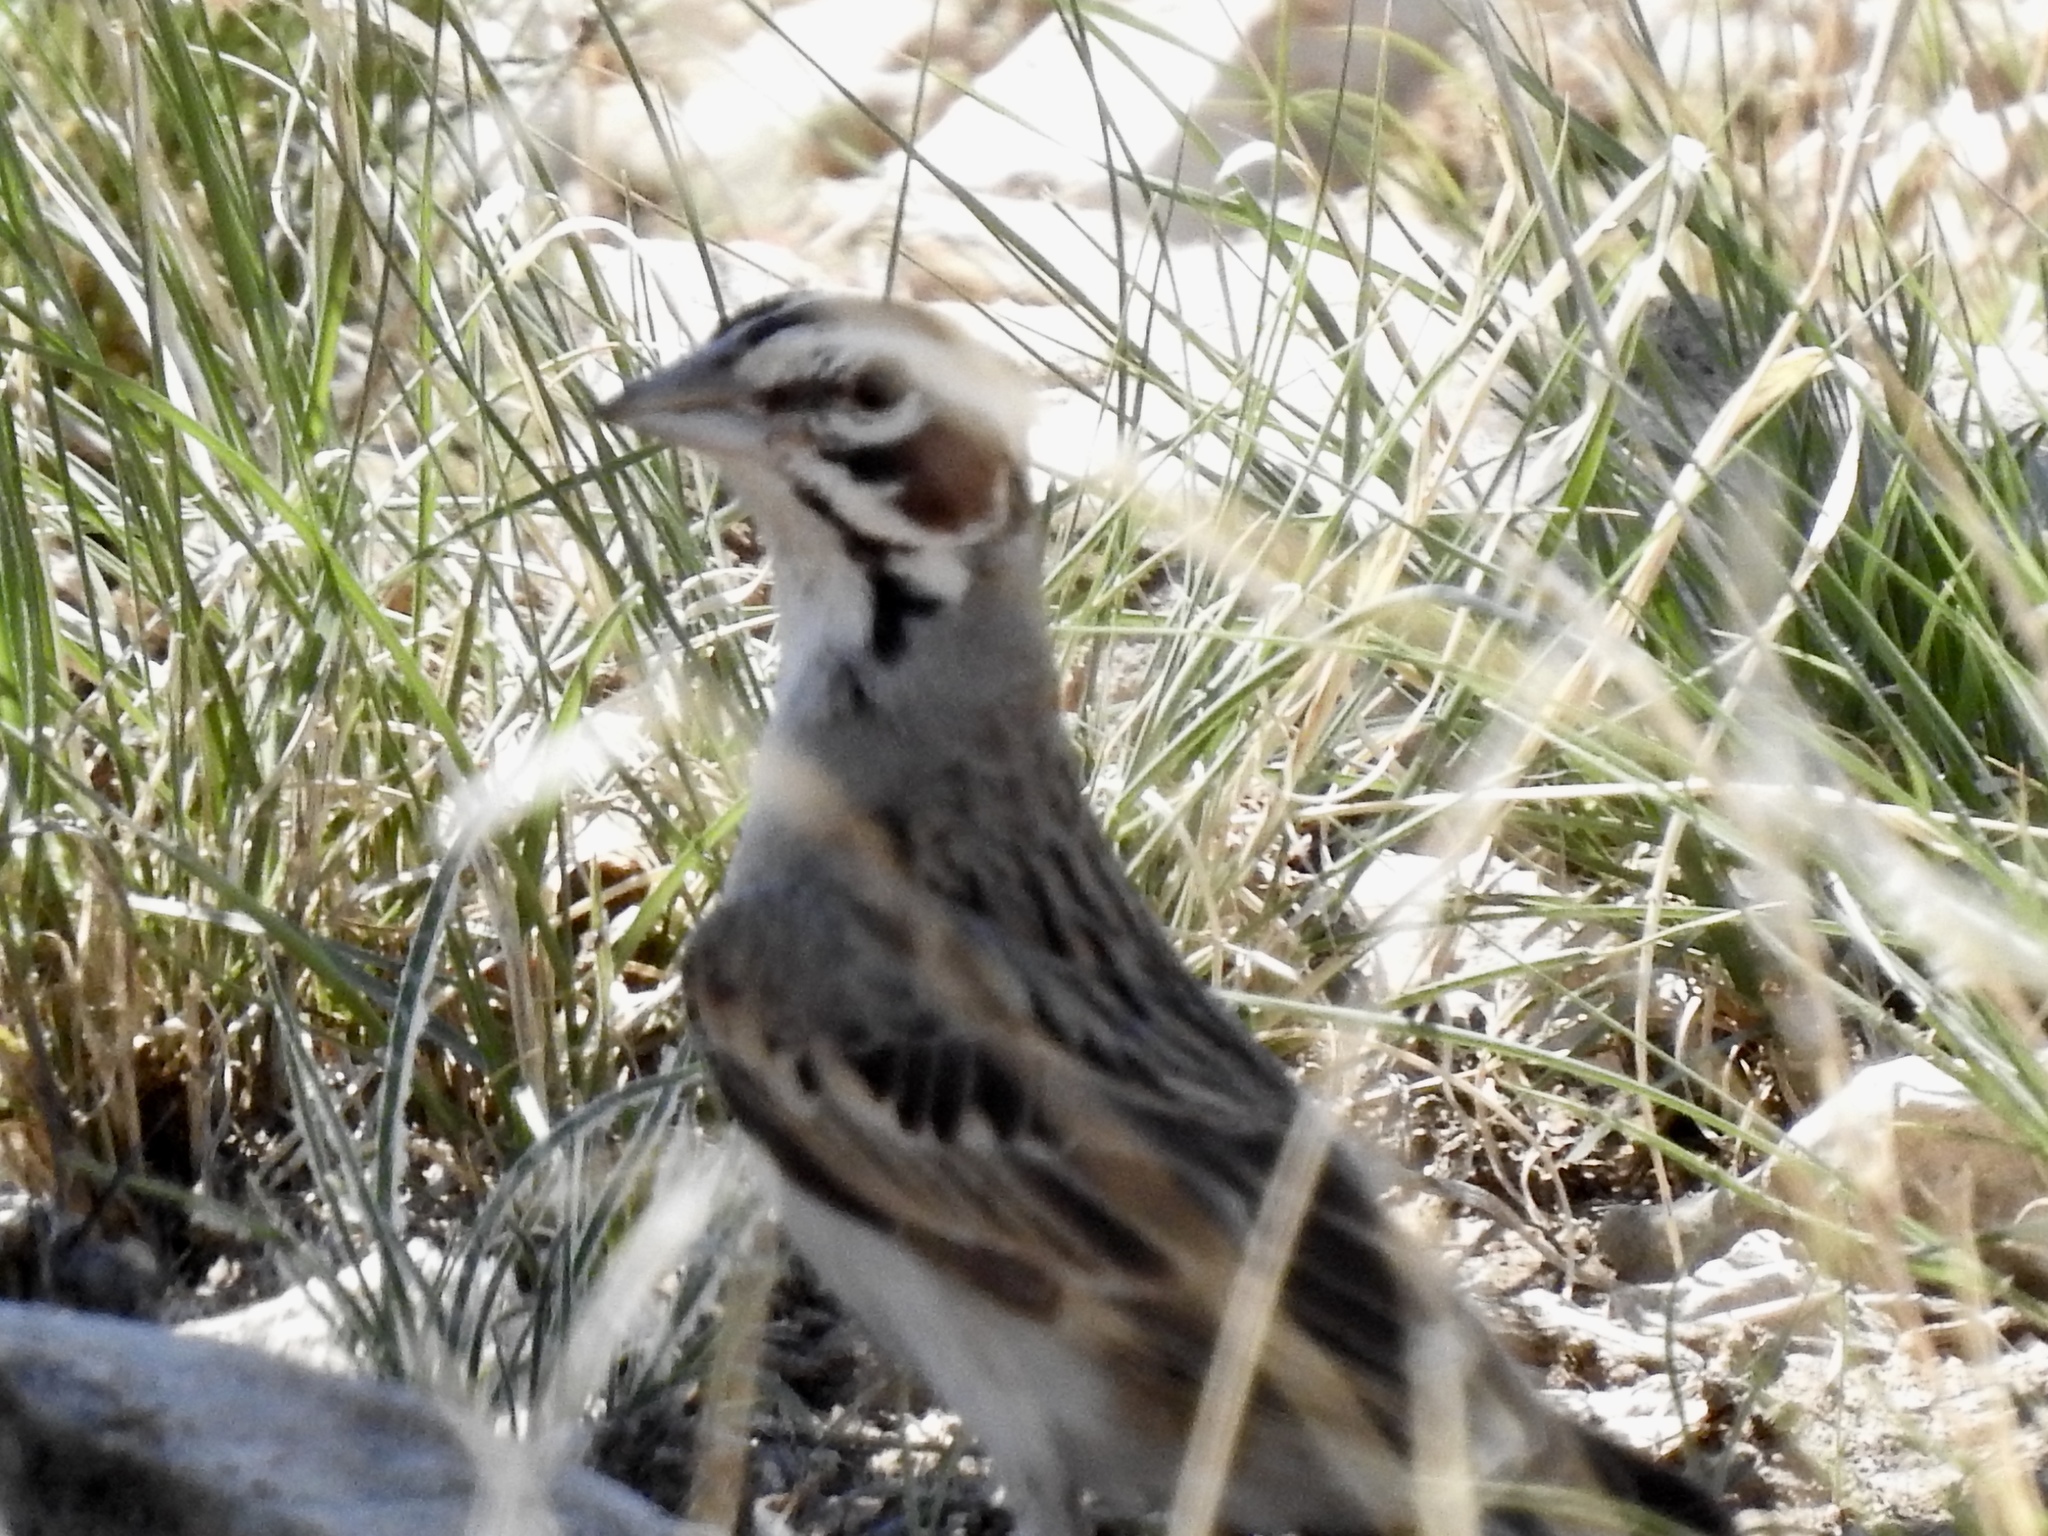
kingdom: Animalia
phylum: Chordata
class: Aves
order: Passeriformes
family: Passerellidae
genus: Chondestes
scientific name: Chondestes grammacus
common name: Lark sparrow
